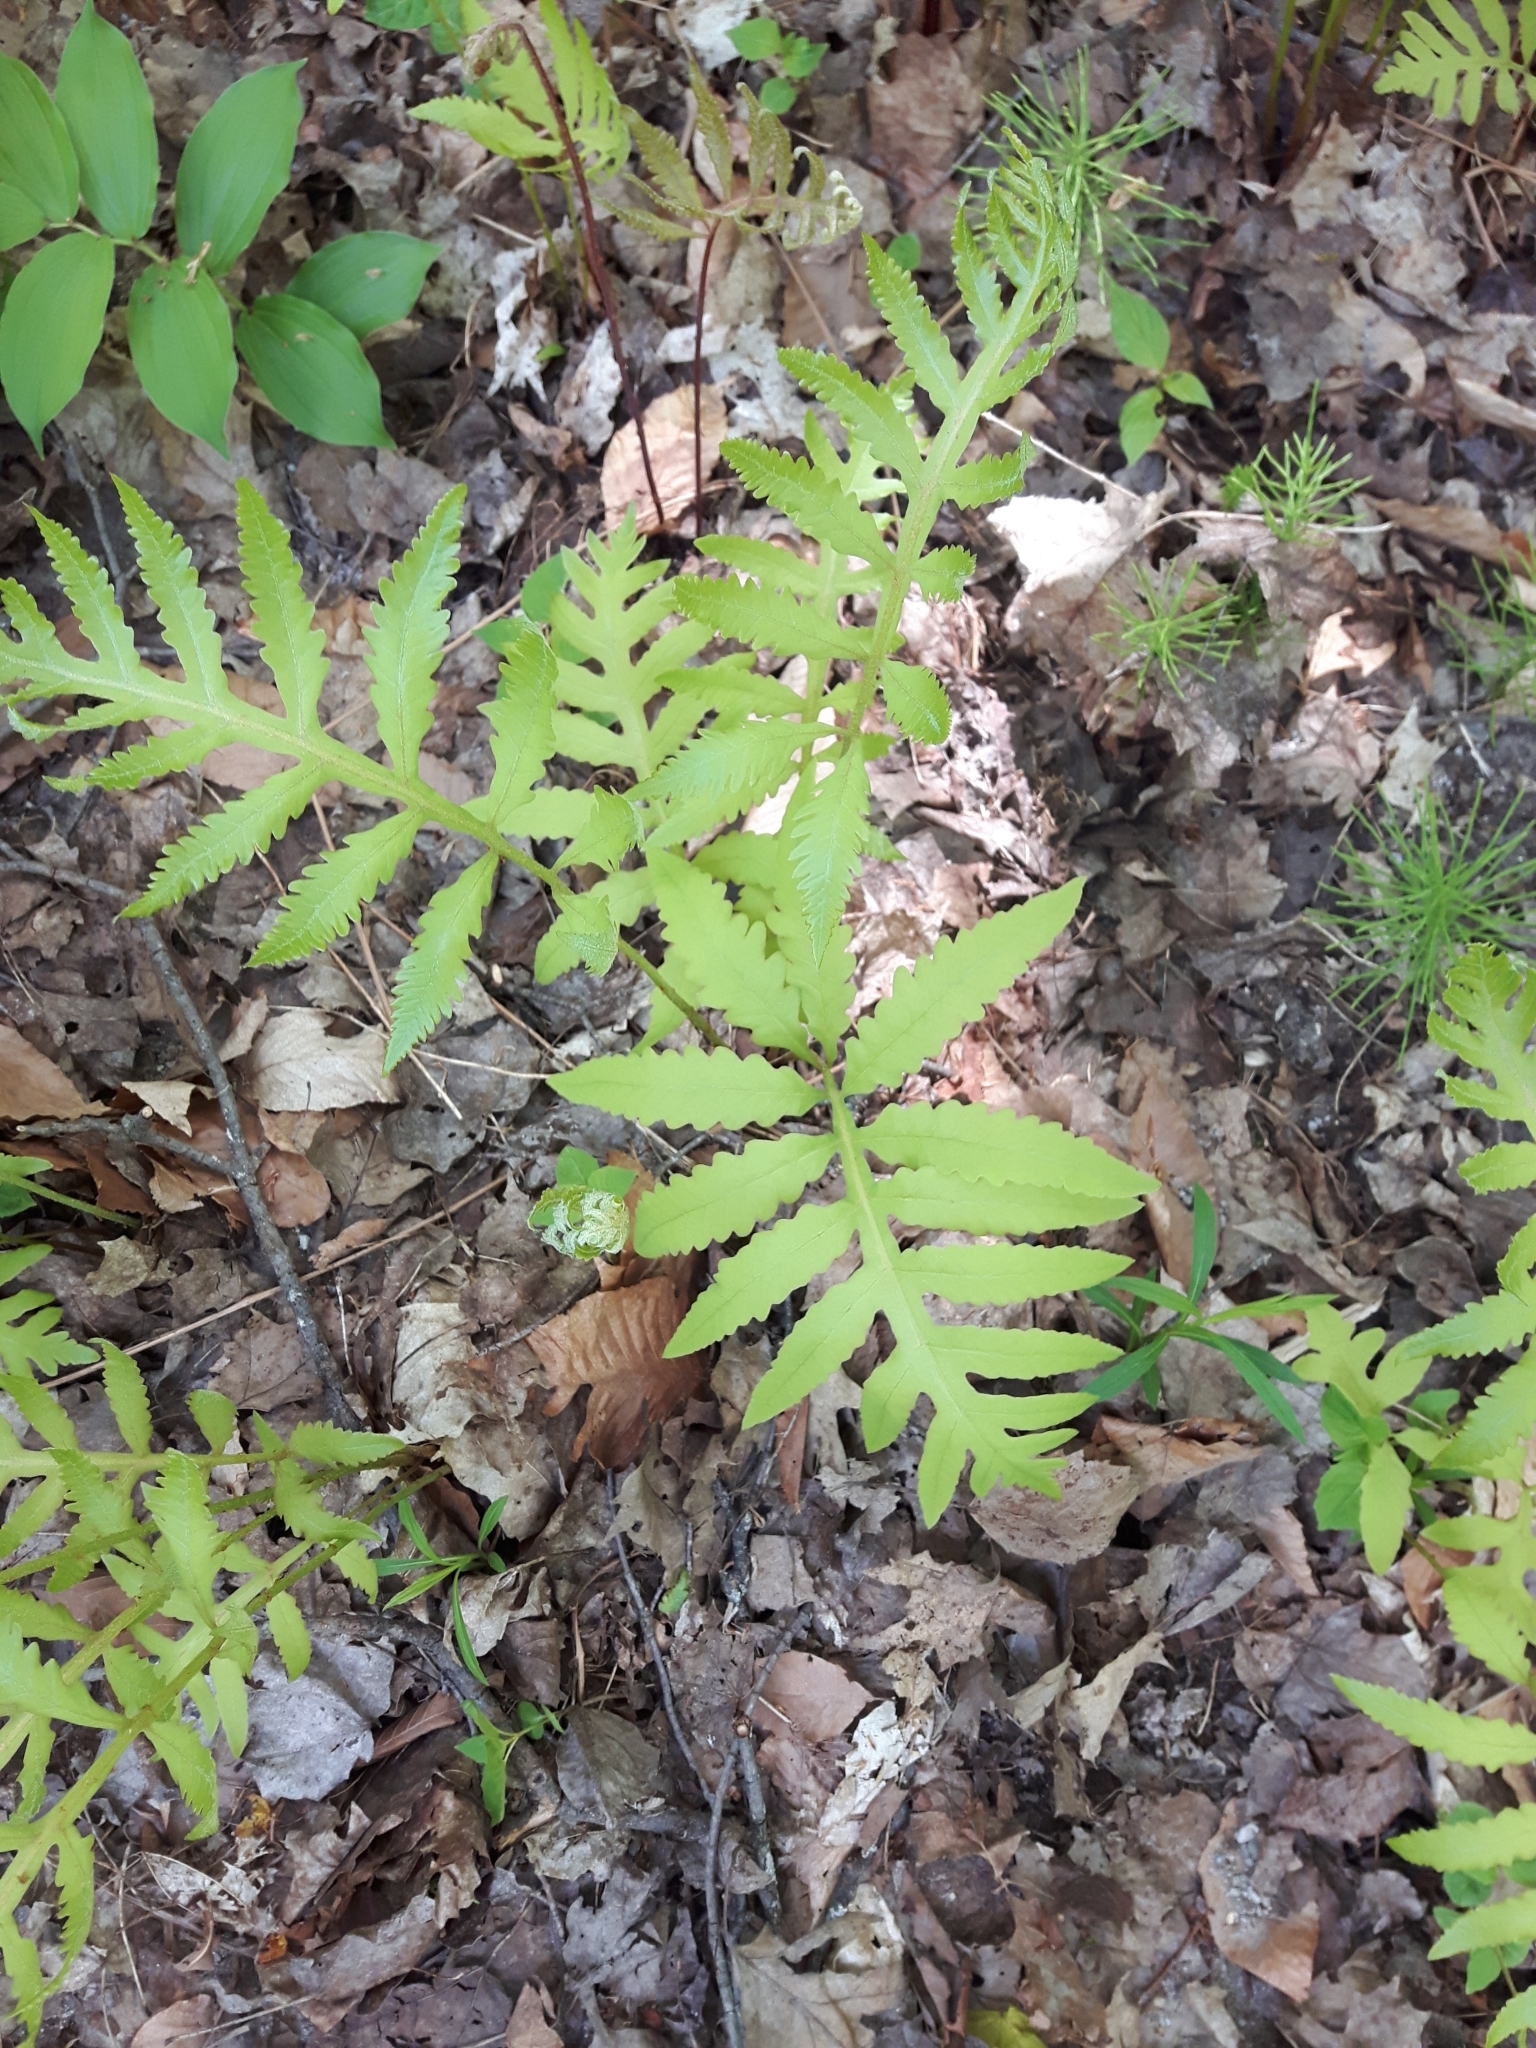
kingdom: Plantae
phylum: Tracheophyta
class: Polypodiopsida
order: Polypodiales
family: Onocleaceae
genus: Onoclea
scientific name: Onoclea sensibilis
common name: Sensitive fern
